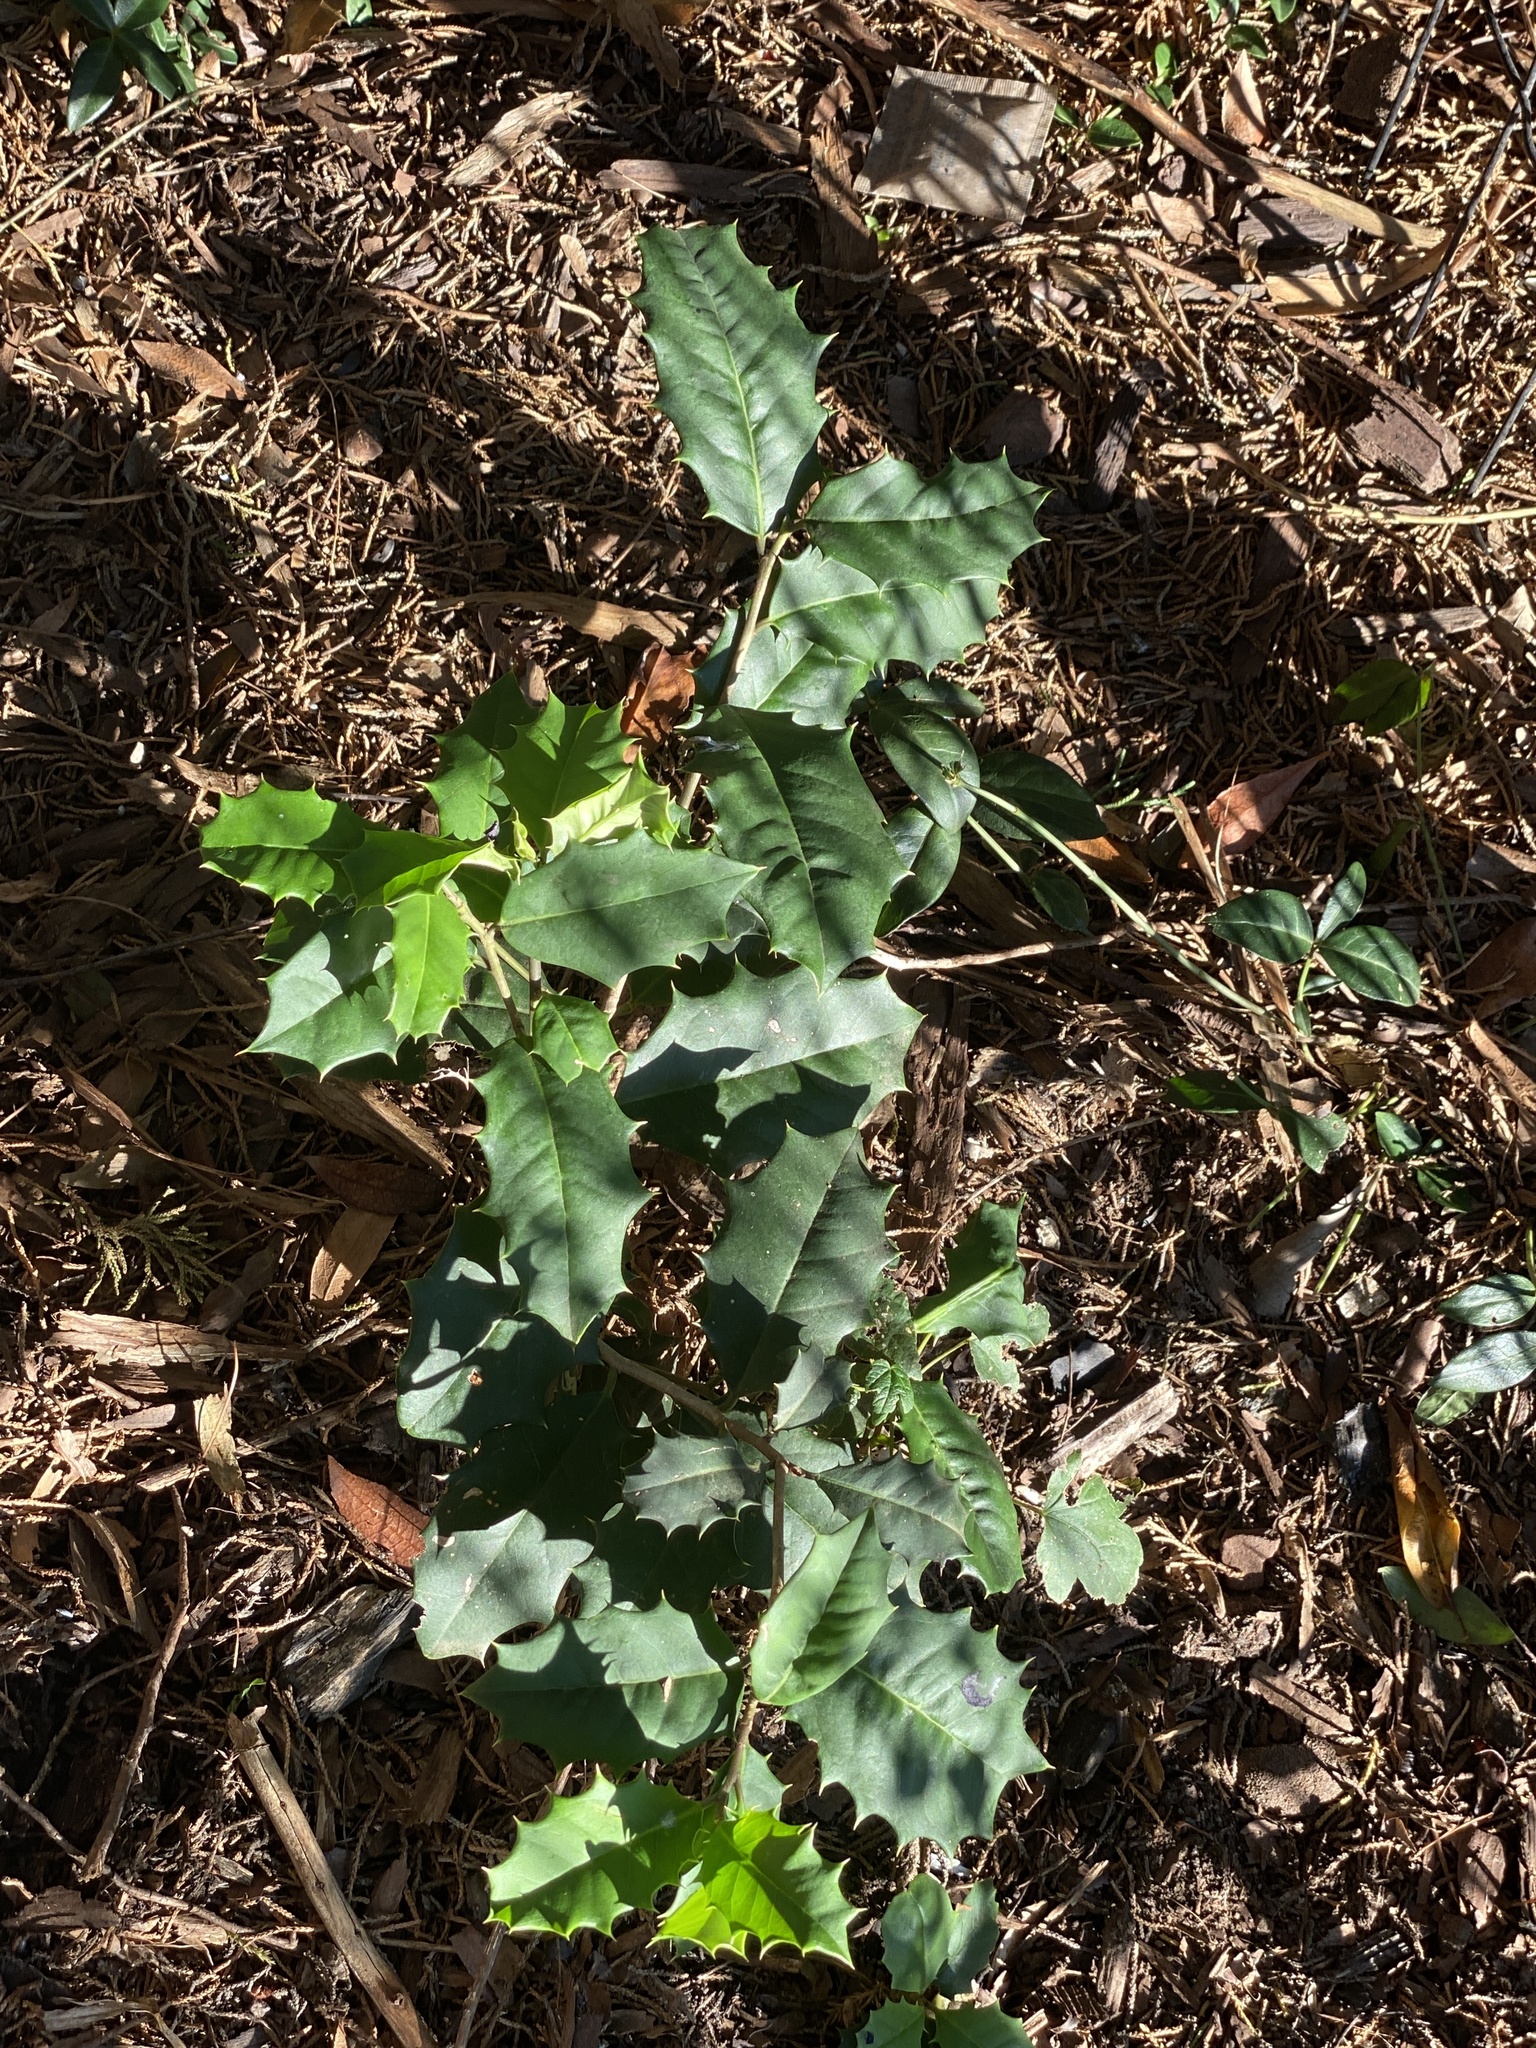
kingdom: Plantae
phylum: Tracheophyta
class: Magnoliopsida
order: Aquifoliales
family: Aquifoliaceae
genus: Ilex
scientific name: Ilex opaca
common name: American holly
